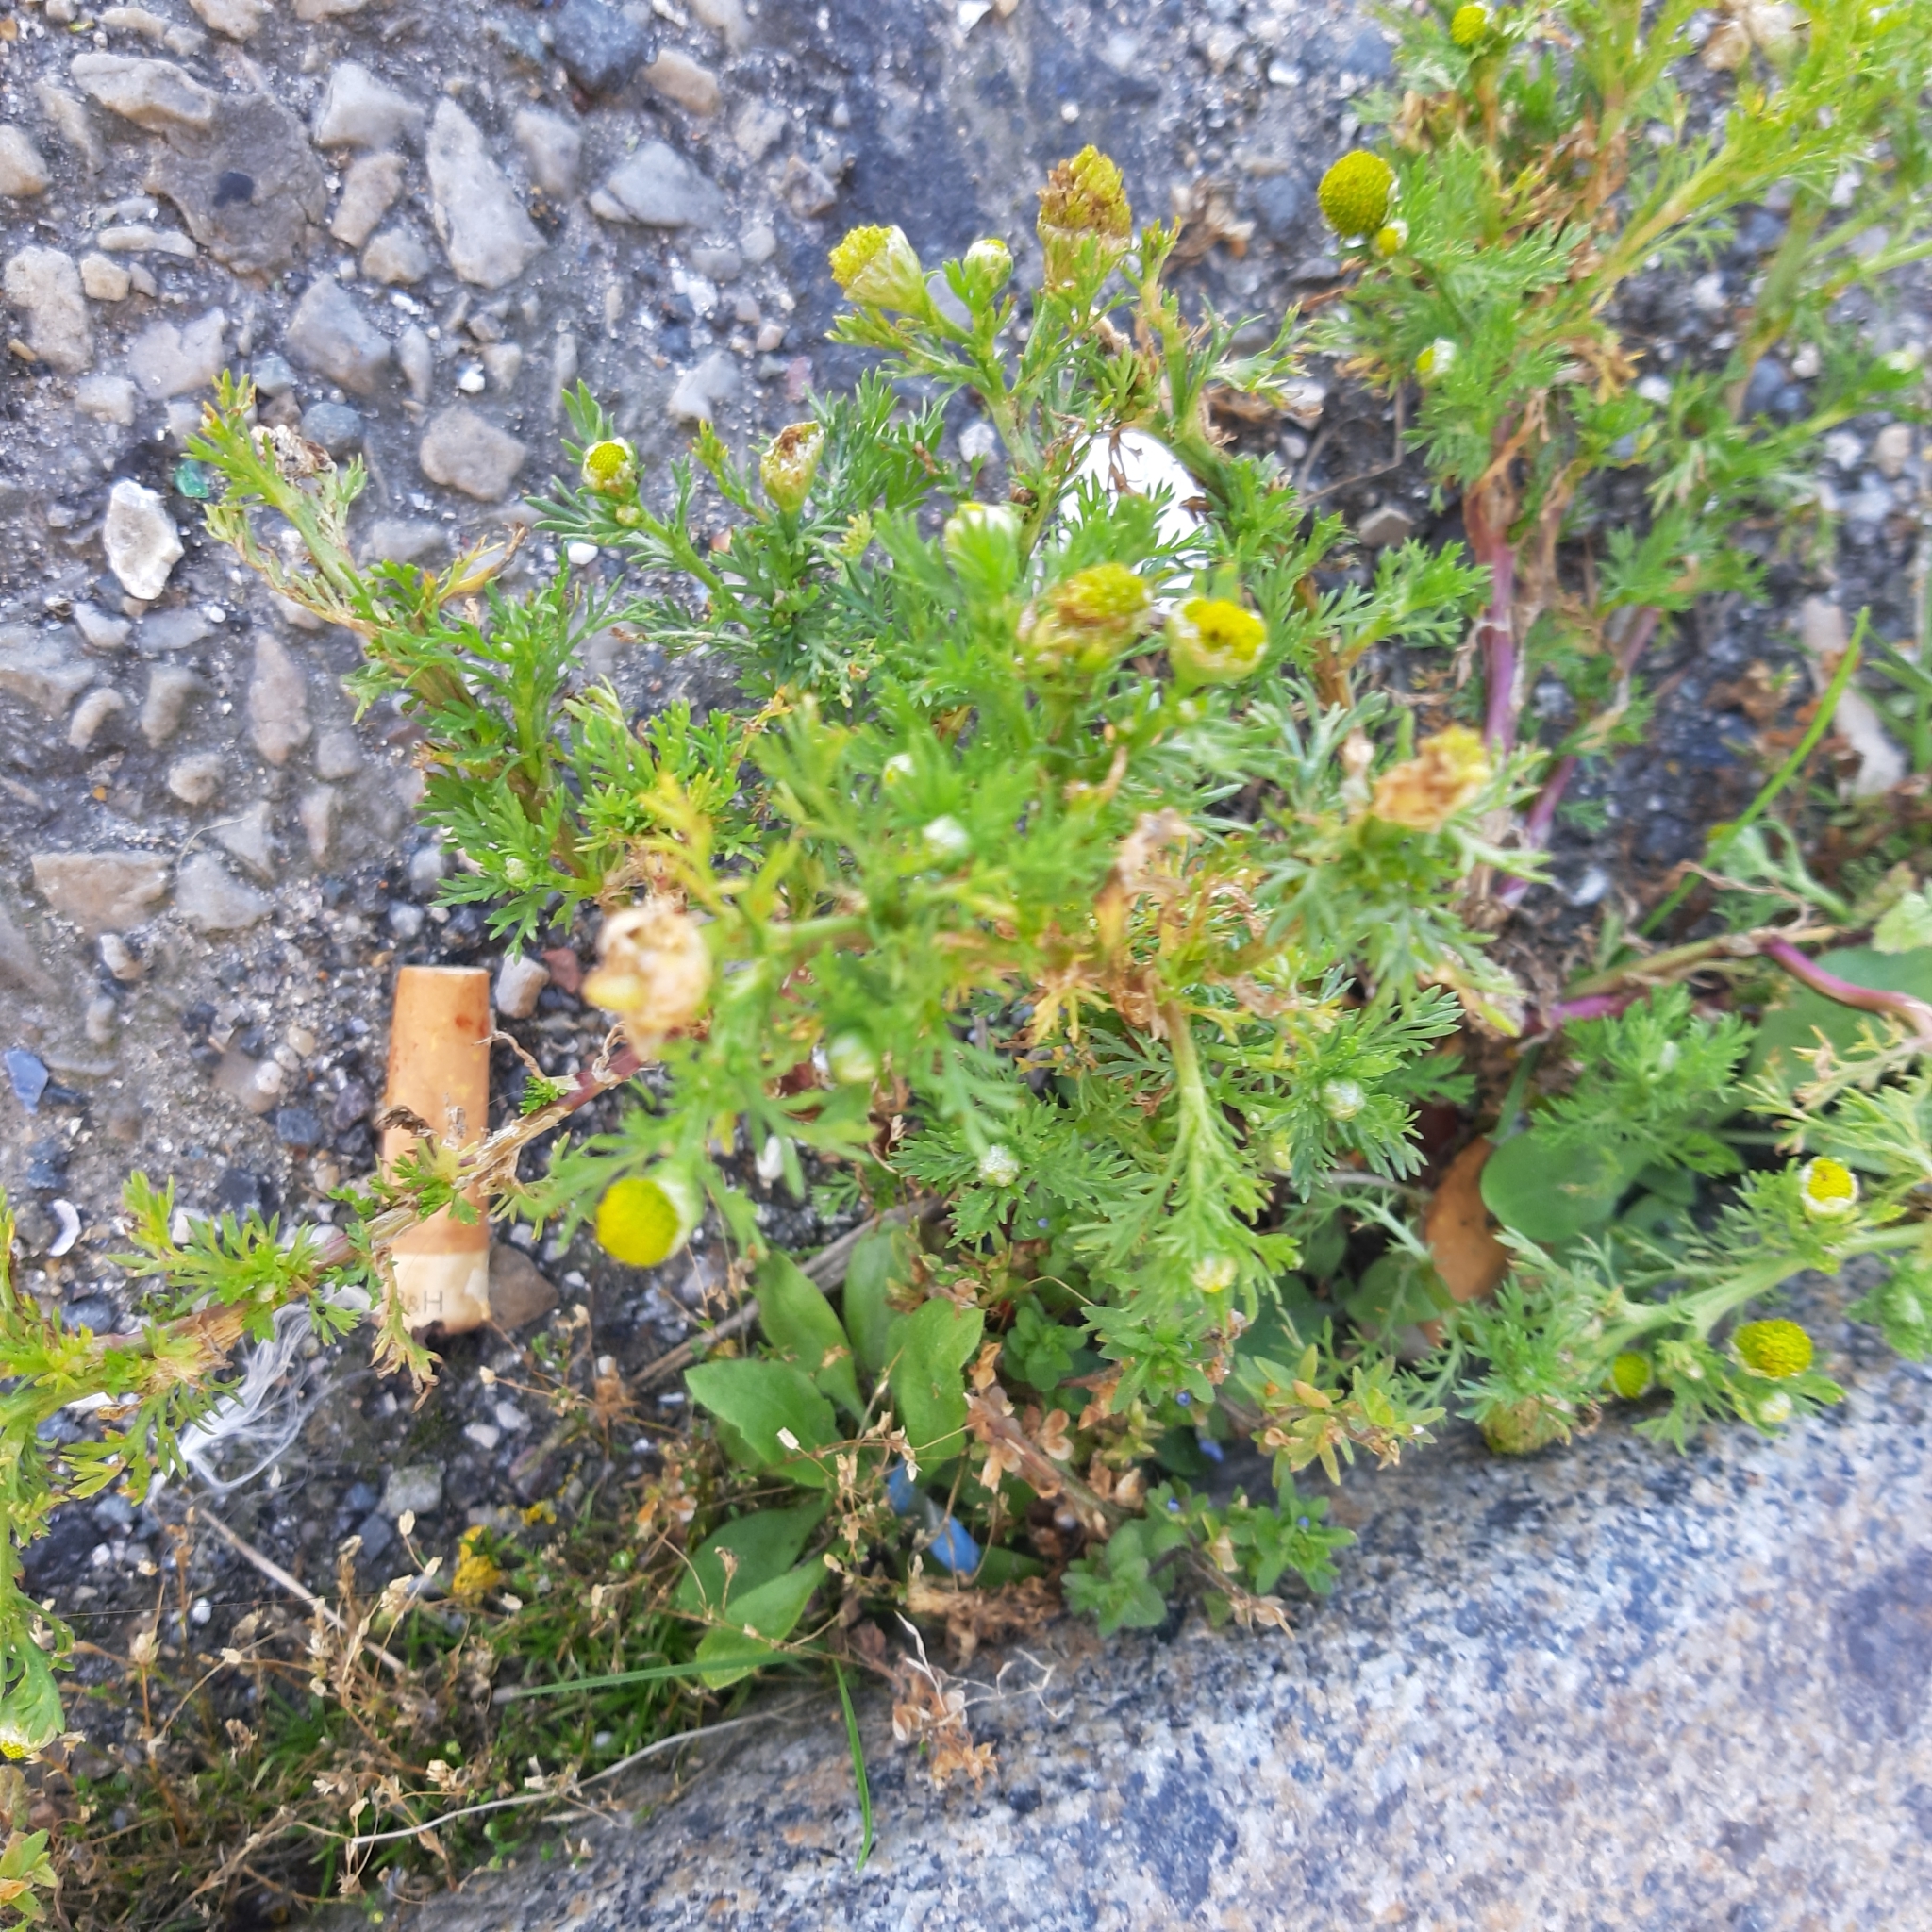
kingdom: Plantae
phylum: Tracheophyta
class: Magnoliopsida
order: Asterales
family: Asteraceae
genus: Matricaria
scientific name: Matricaria discoidea
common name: Disc mayweed
